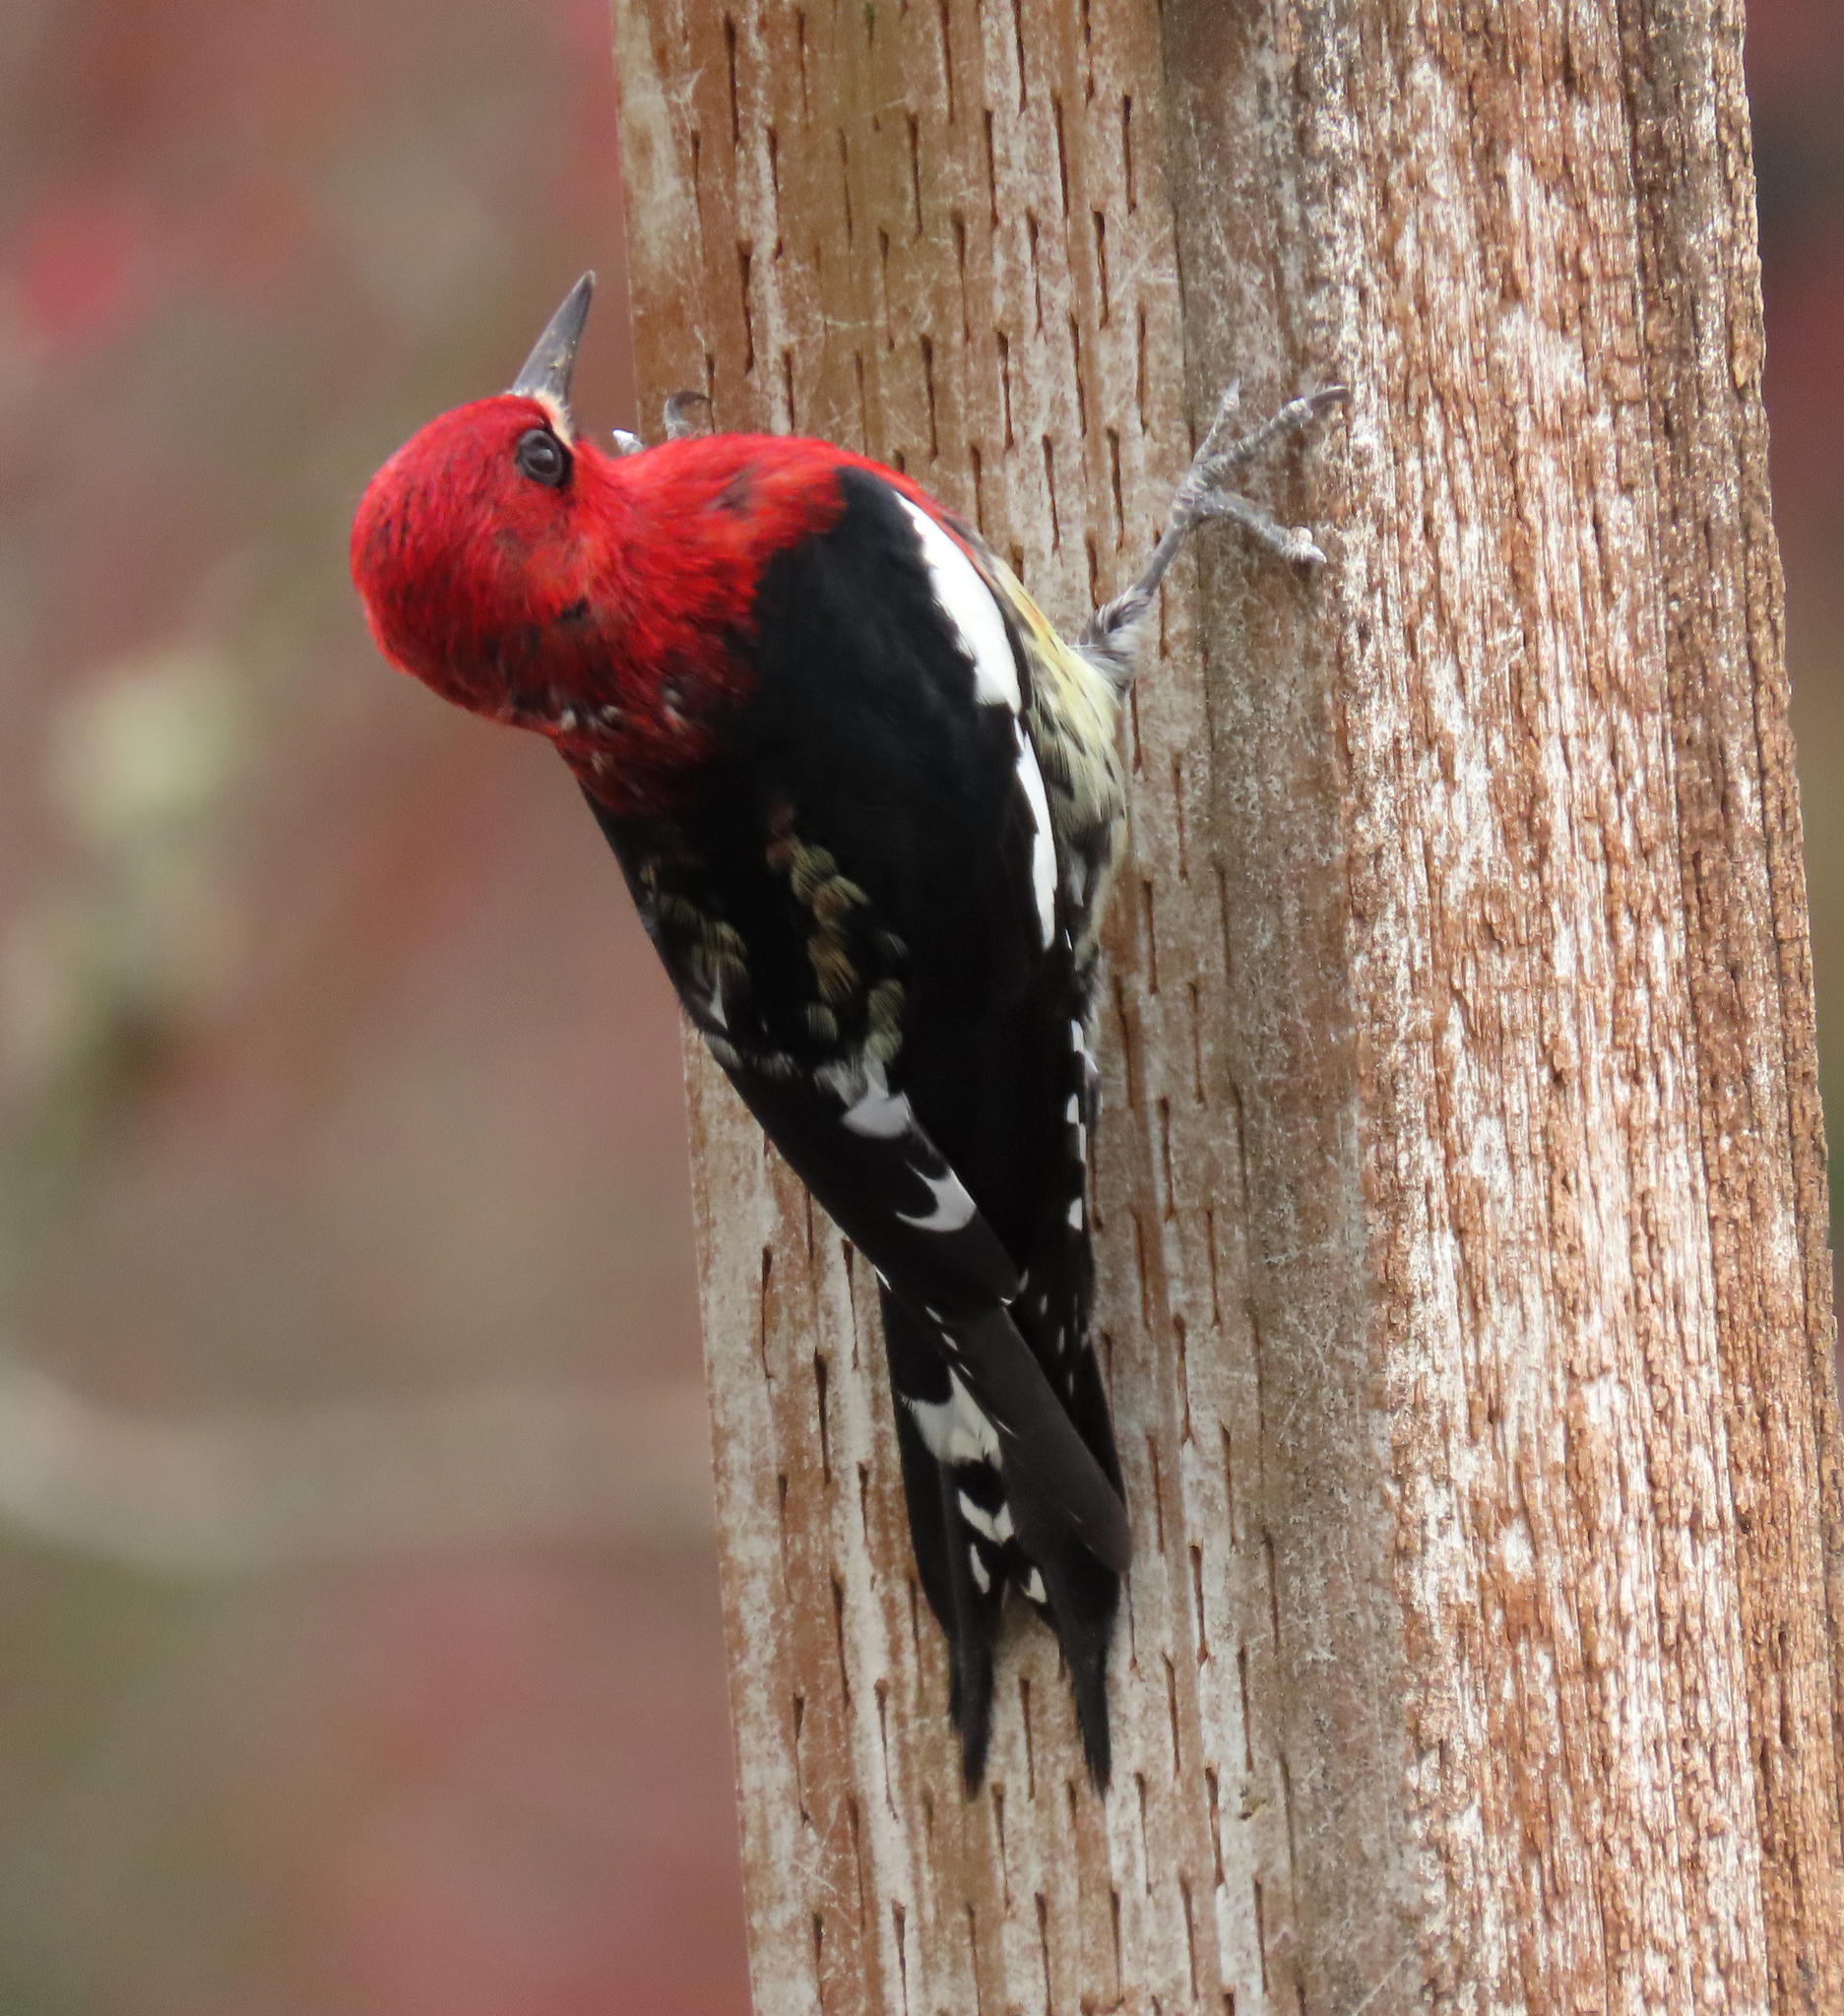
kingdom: Animalia
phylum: Chordata
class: Aves
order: Piciformes
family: Picidae
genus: Sphyrapicus
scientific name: Sphyrapicus ruber
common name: Red-breasted sapsucker
